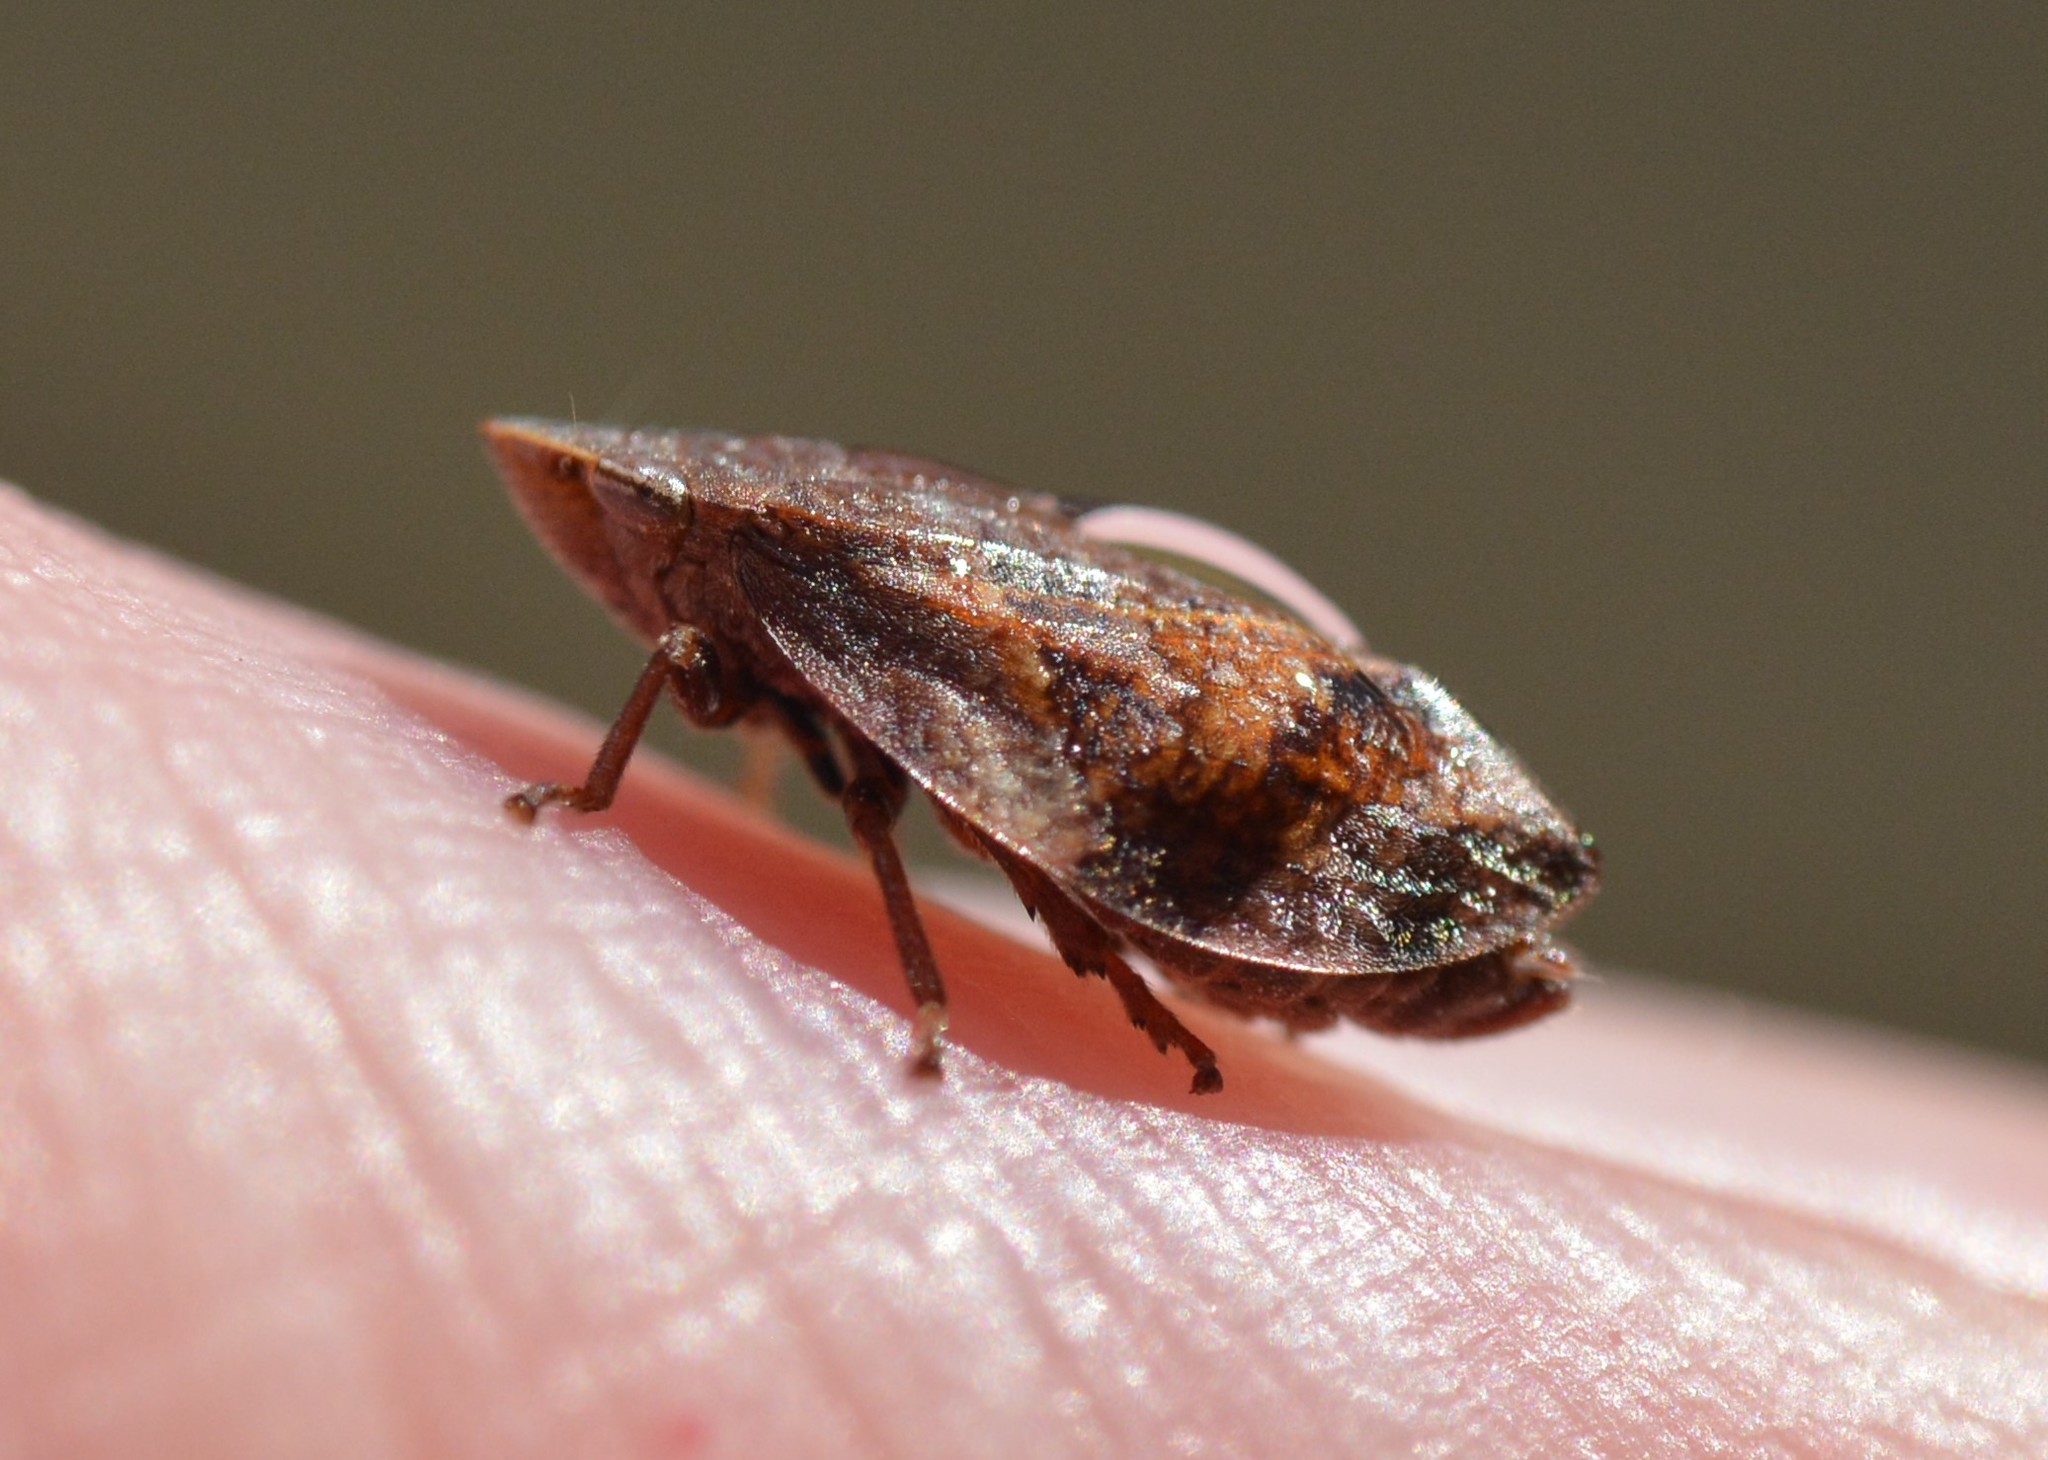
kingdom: Animalia
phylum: Arthropoda
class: Insecta
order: Hemiptera
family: Aphrophoridae
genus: Lepyronia
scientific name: Lepyronia quadrangularis
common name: Diamond-backed spittlebug
